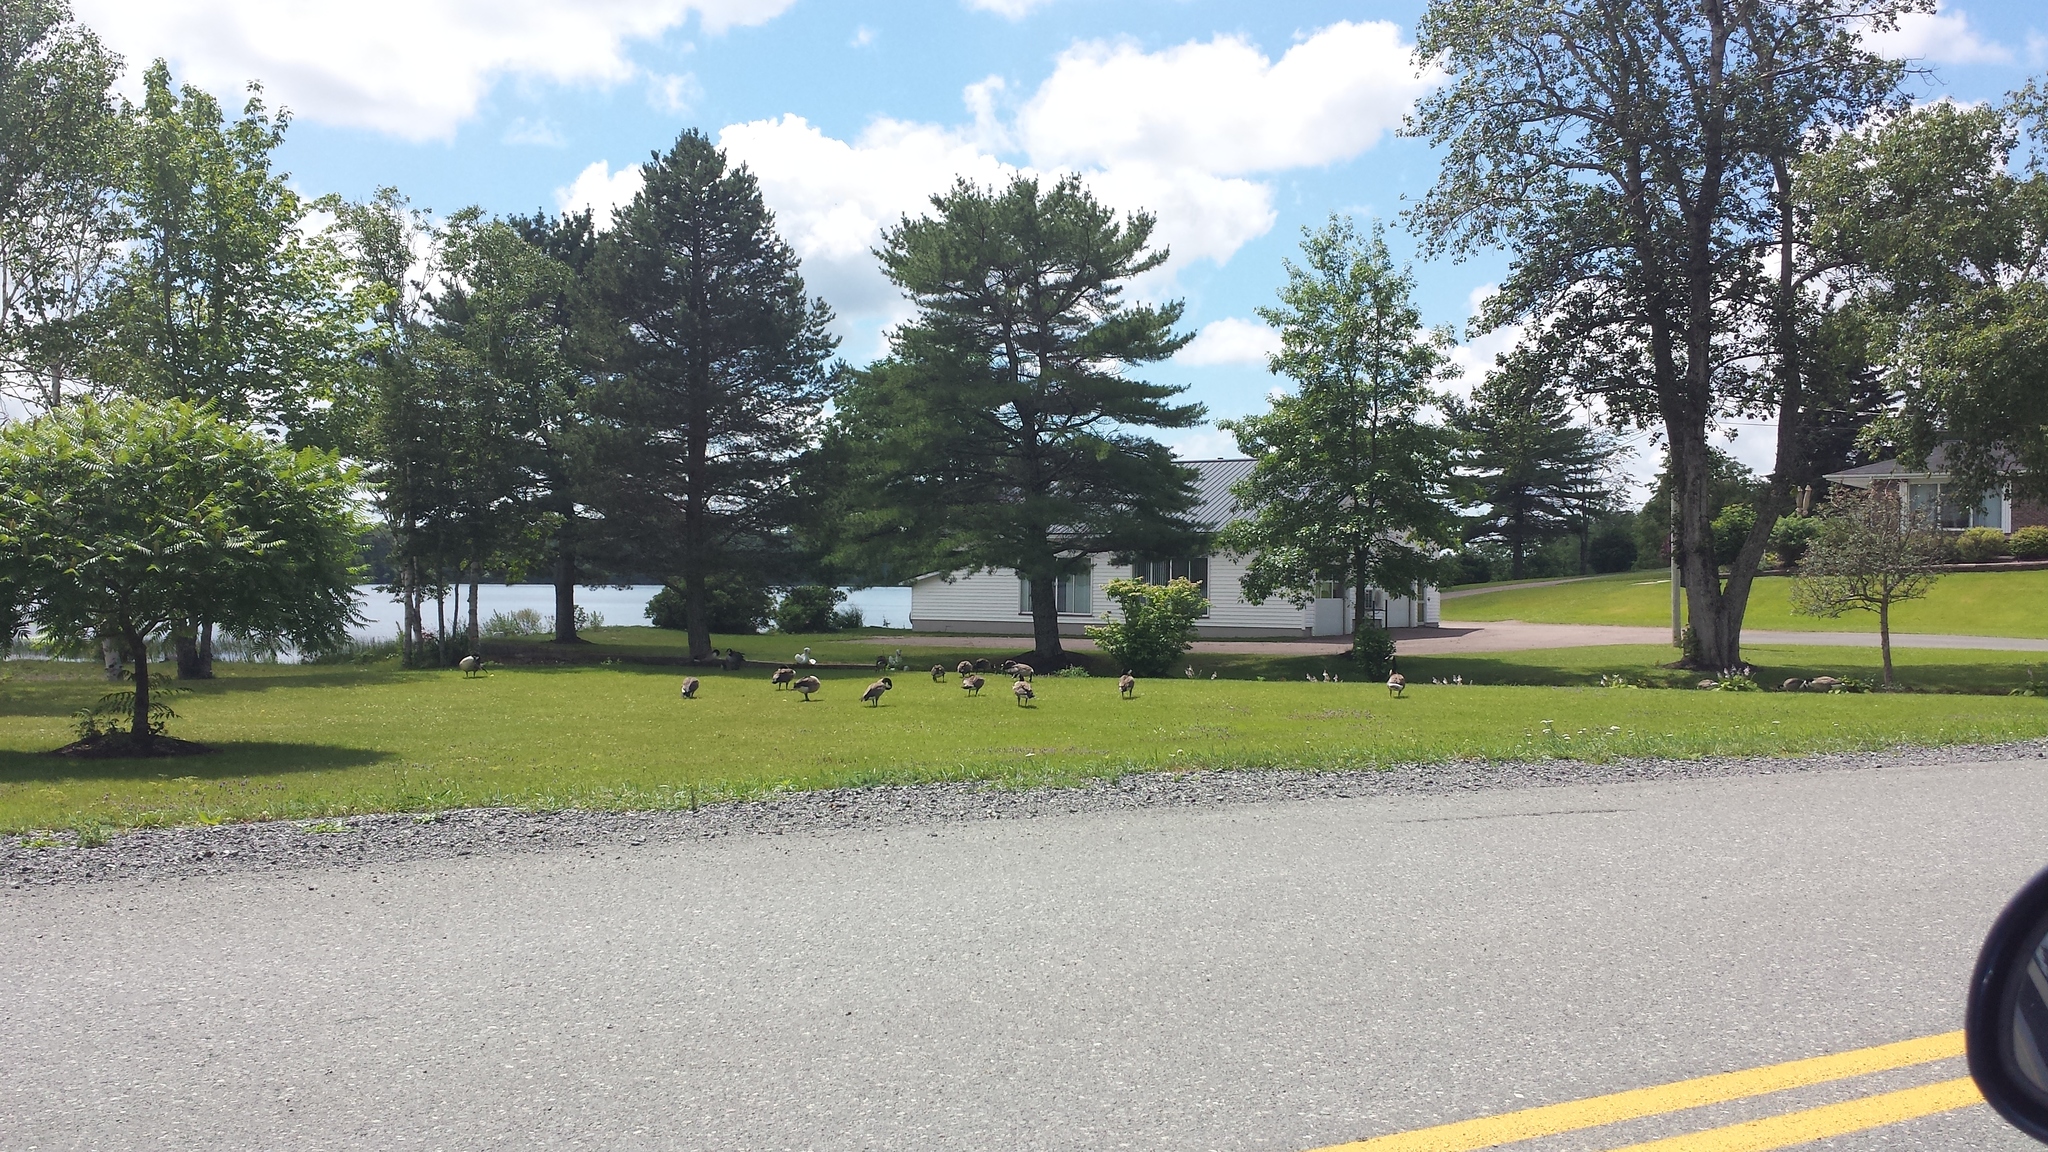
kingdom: Animalia
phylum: Chordata
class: Aves
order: Anseriformes
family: Anatidae
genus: Branta
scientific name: Branta canadensis
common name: Canada goose
